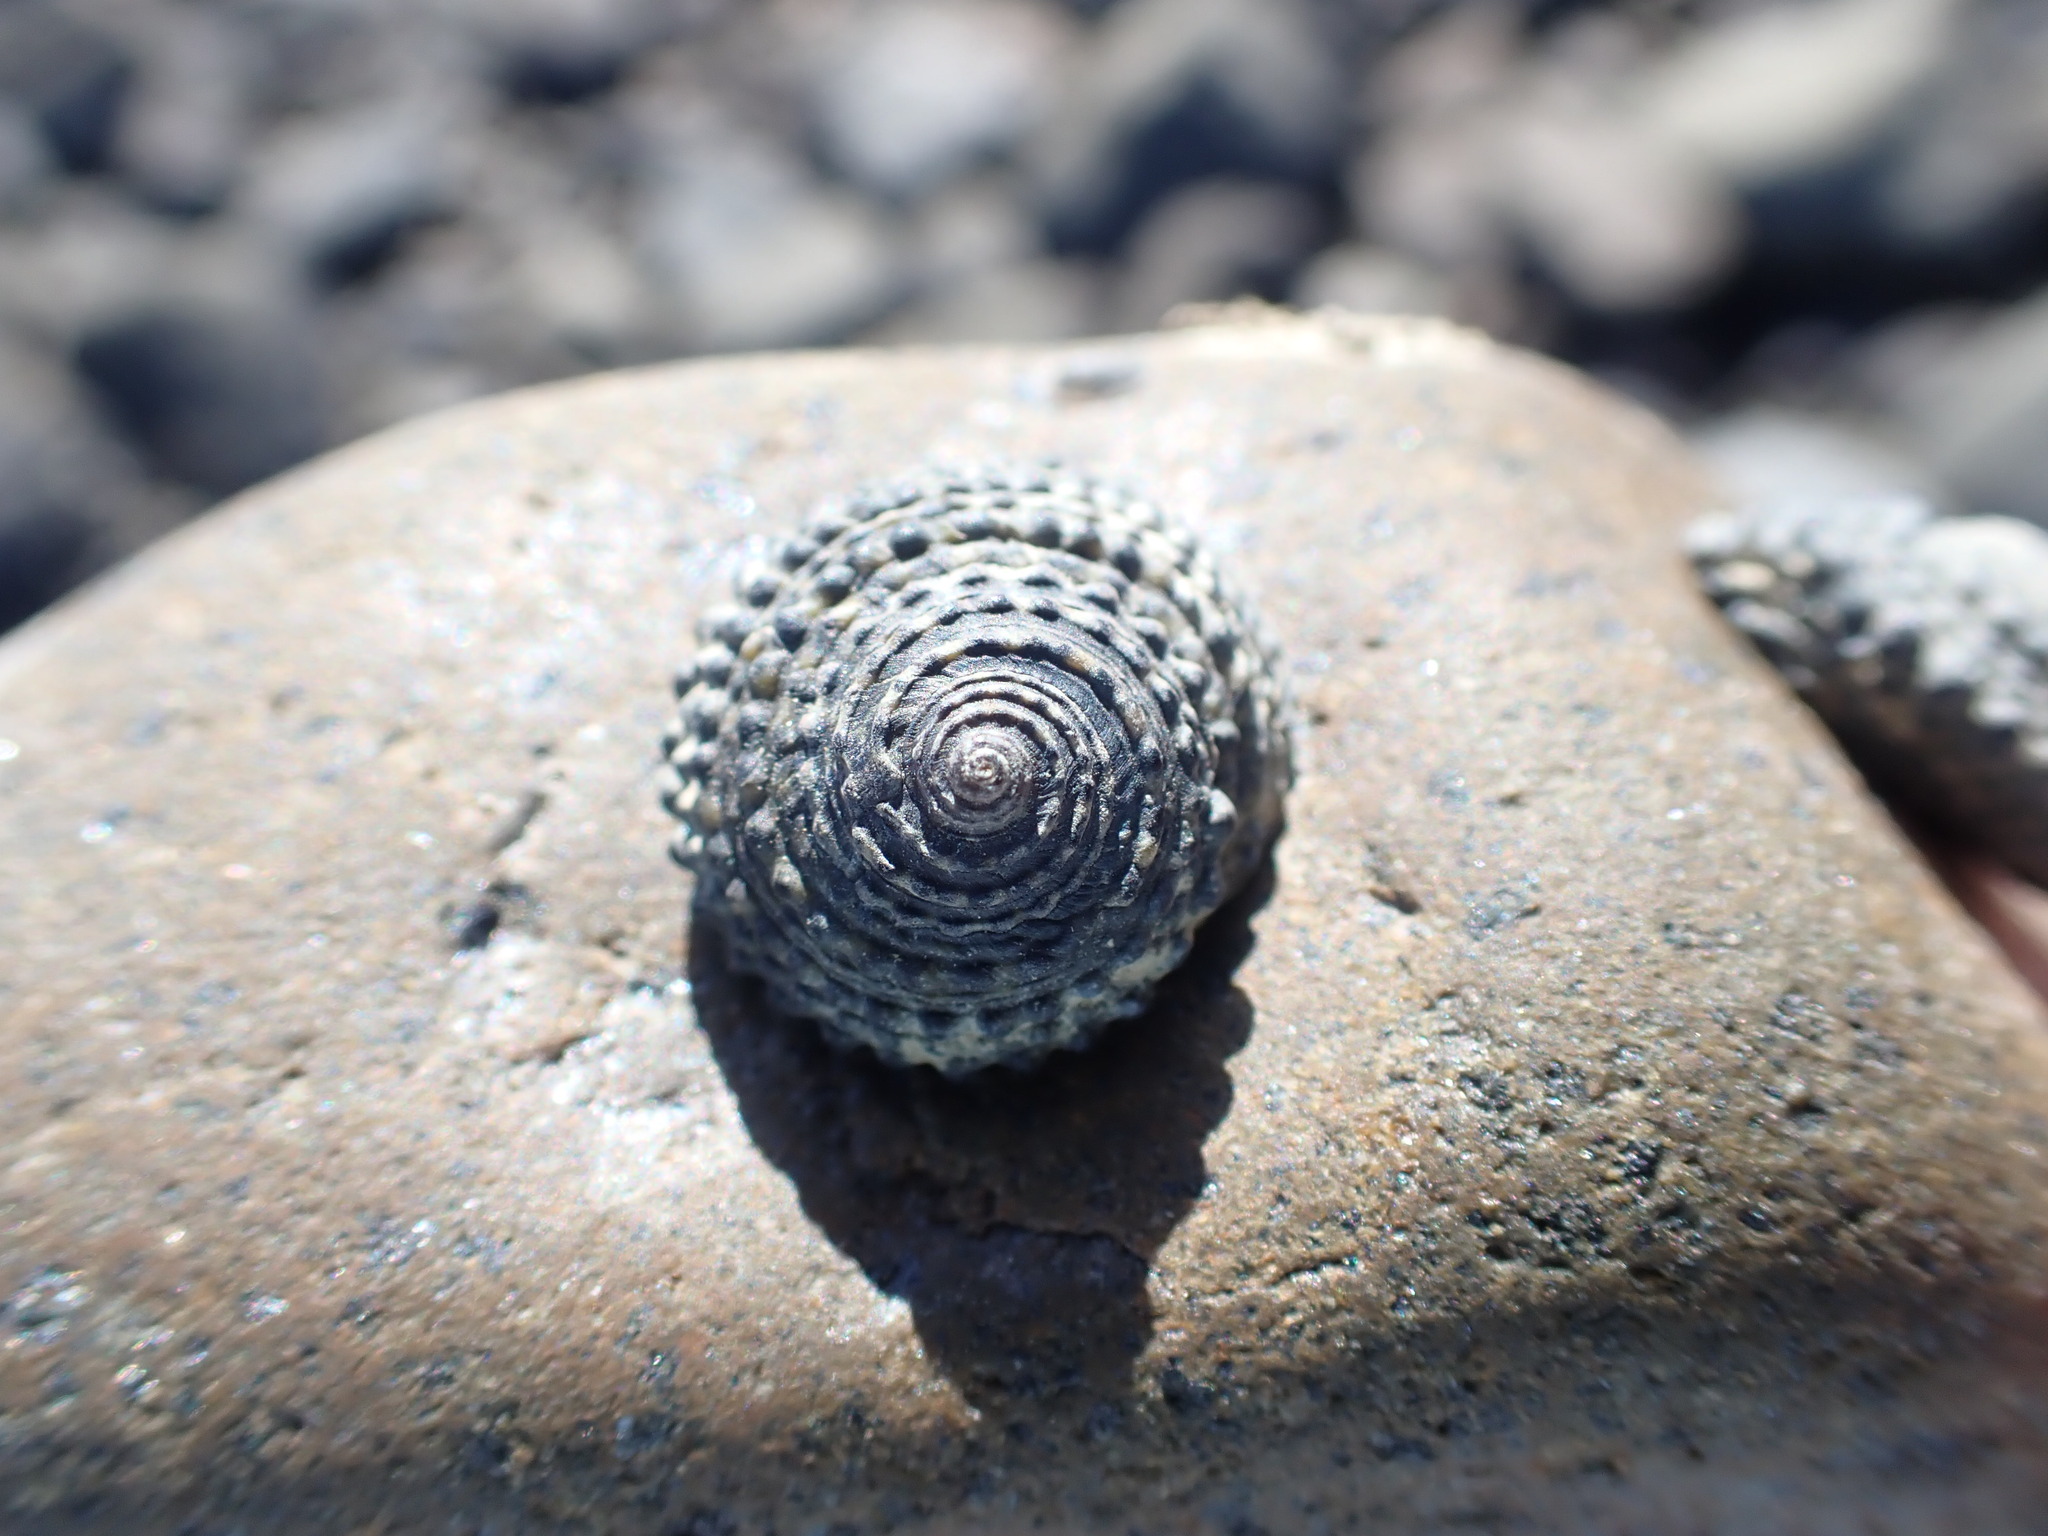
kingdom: Animalia
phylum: Mollusca
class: Gastropoda
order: Trochida
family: Trochidae
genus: Diloma
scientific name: Diloma bicanaliculatum
